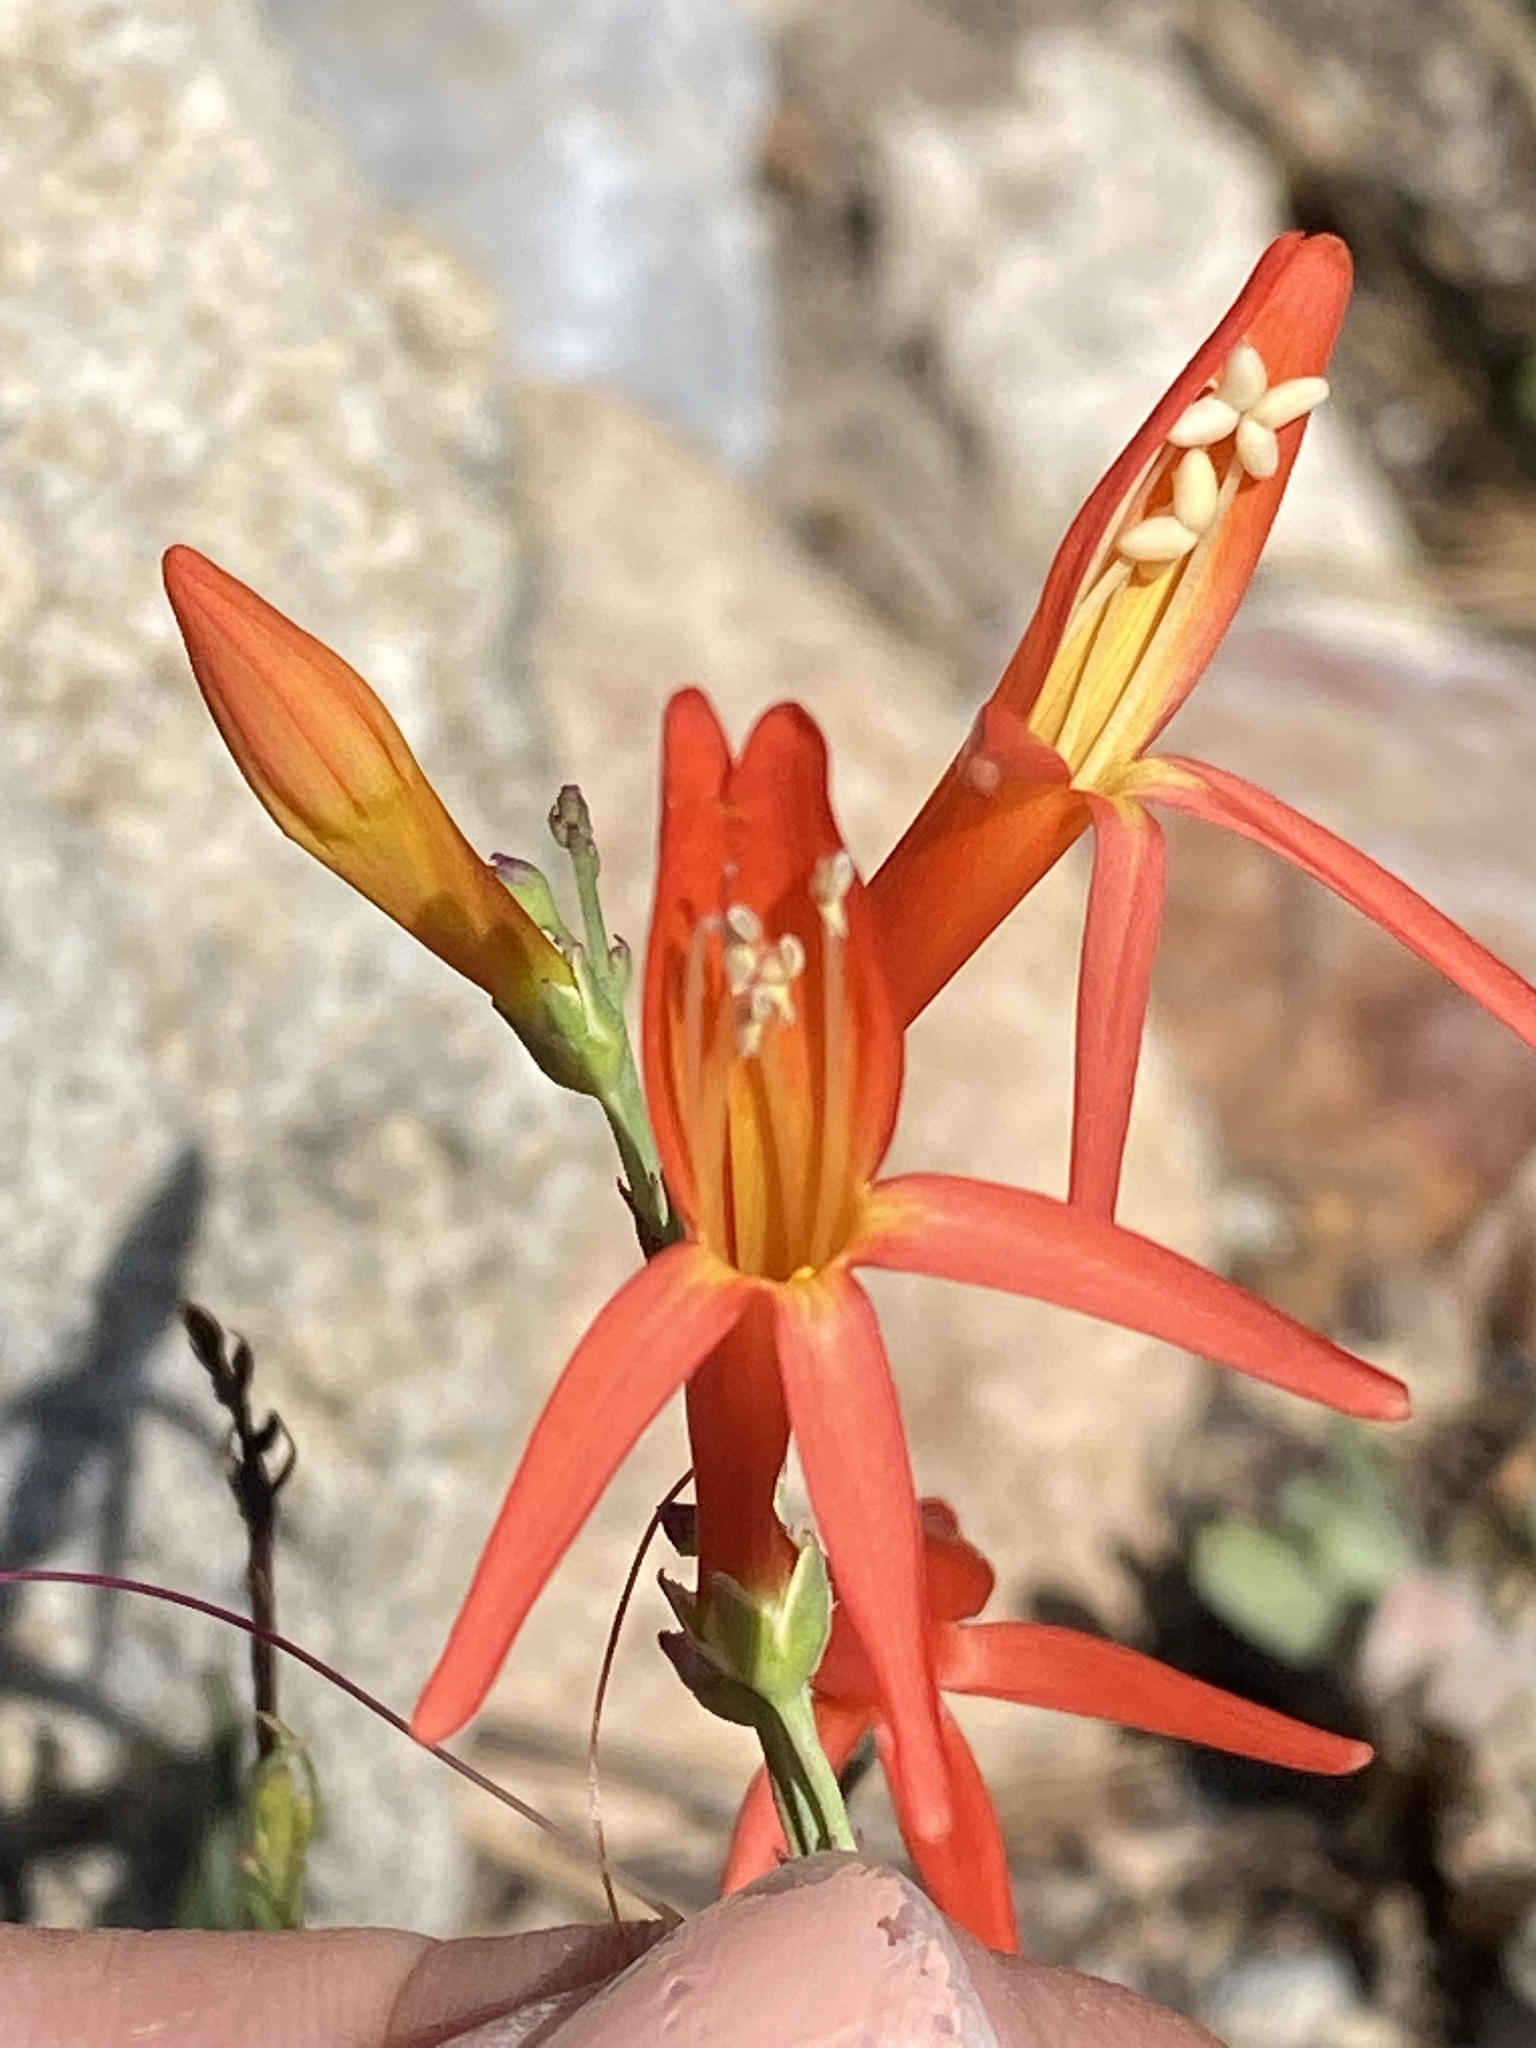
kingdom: Plantae
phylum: Tracheophyta
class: Magnoliopsida
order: Lamiales
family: Plantaginaceae
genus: Penstemon
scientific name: Penstemon labrosus
